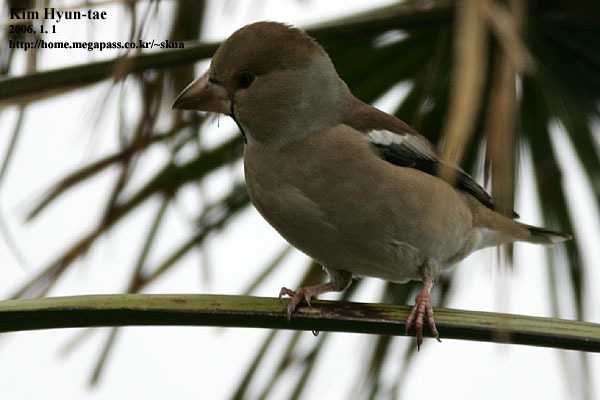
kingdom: Animalia
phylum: Chordata
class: Aves
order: Passeriformes
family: Fringillidae
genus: Coccothraustes
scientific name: Coccothraustes coccothraustes
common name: Hawfinch
